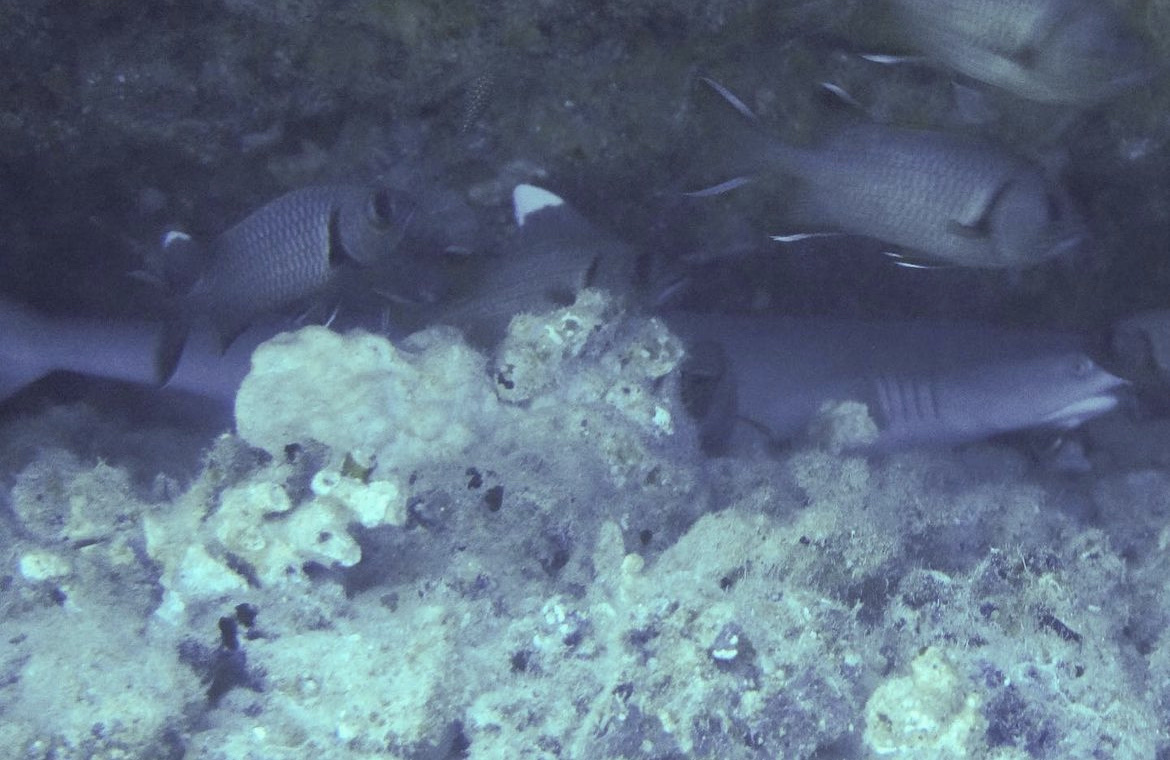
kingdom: Animalia
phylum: Chordata
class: Elasmobranchii
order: Carcharhiniformes
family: Carcharhinidae
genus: Triaenodon
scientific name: Triaenodon obesus
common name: Whitetip reef shark
